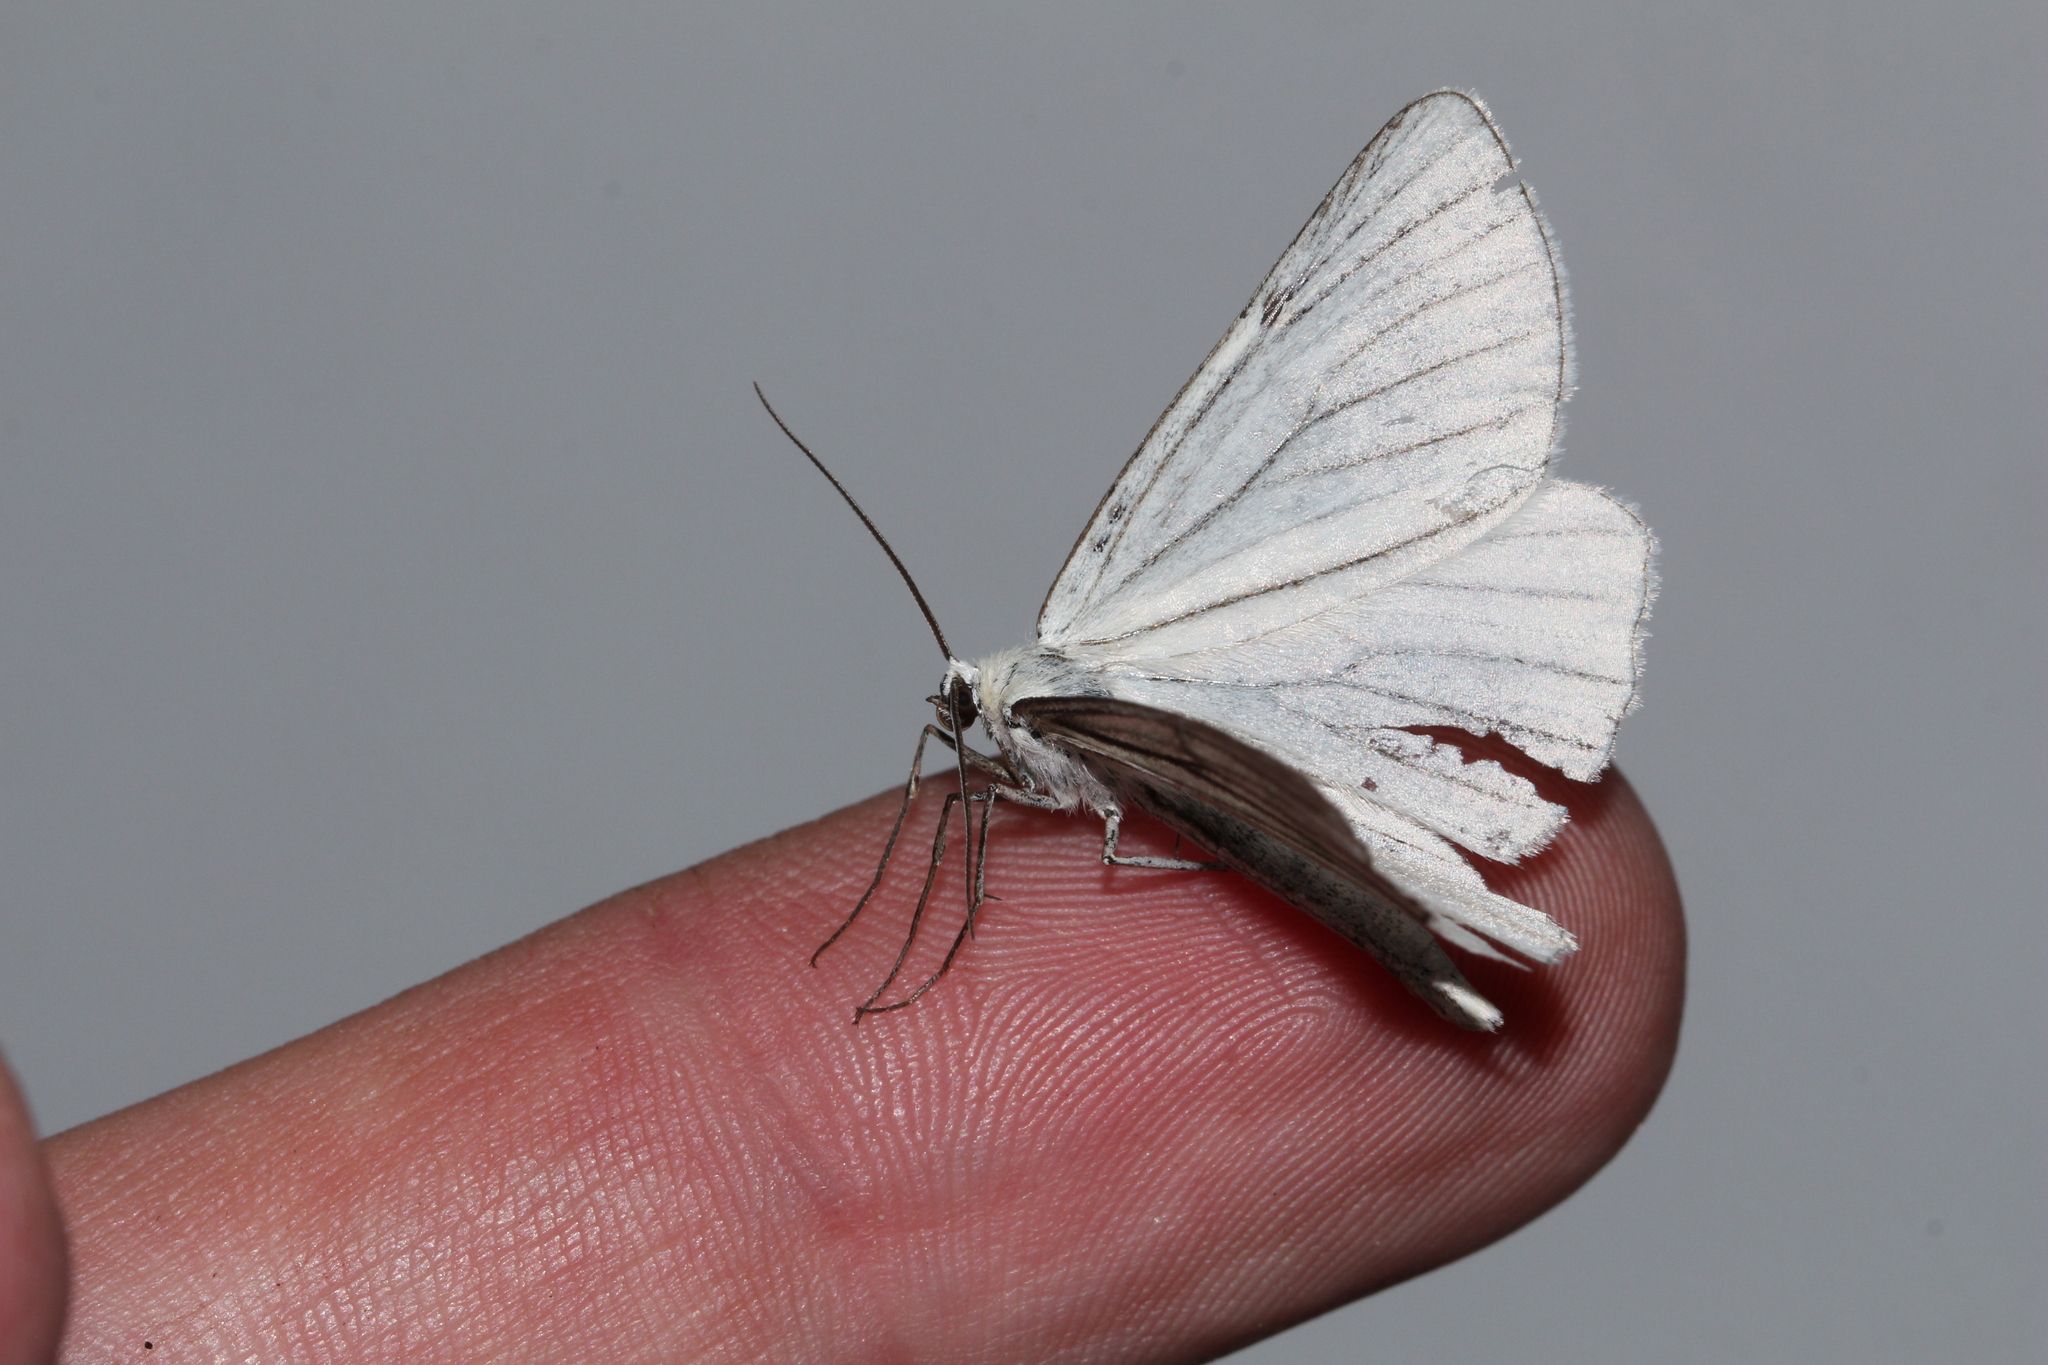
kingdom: Animalia
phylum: Arthropoda
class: Insecta
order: Lepidoptera
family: Geometridae
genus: Siona
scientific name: Siona lineata
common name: Black-veined moth
